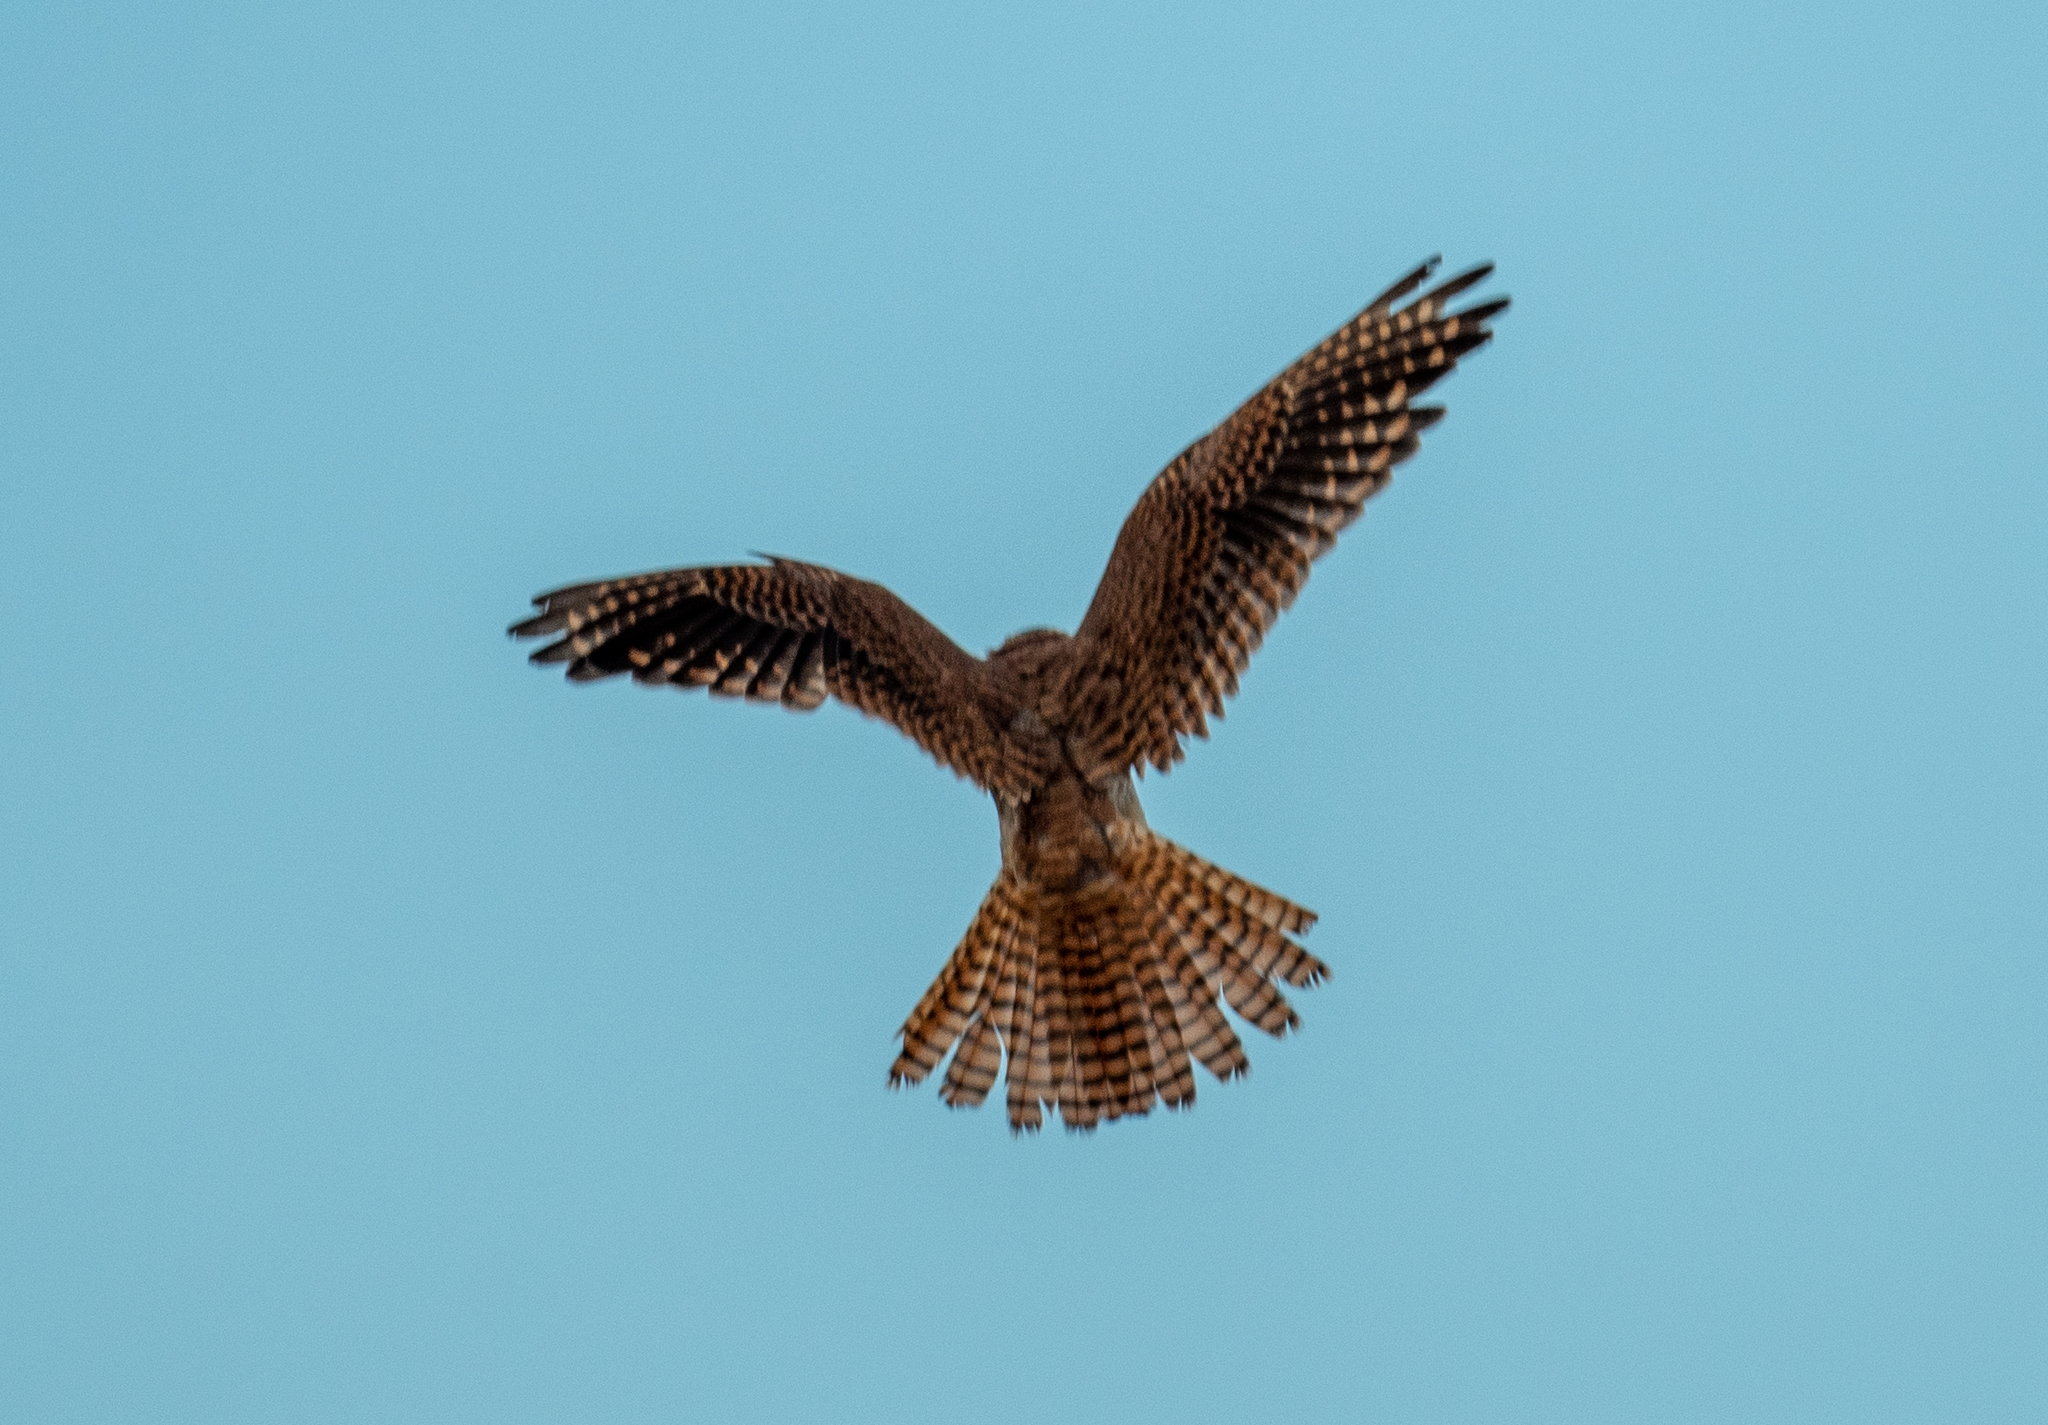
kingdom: Animalia
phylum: Chordata
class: Aves
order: Falconiformes
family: Falconidae
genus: Falco
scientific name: Falco sparverius
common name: American kestrel
